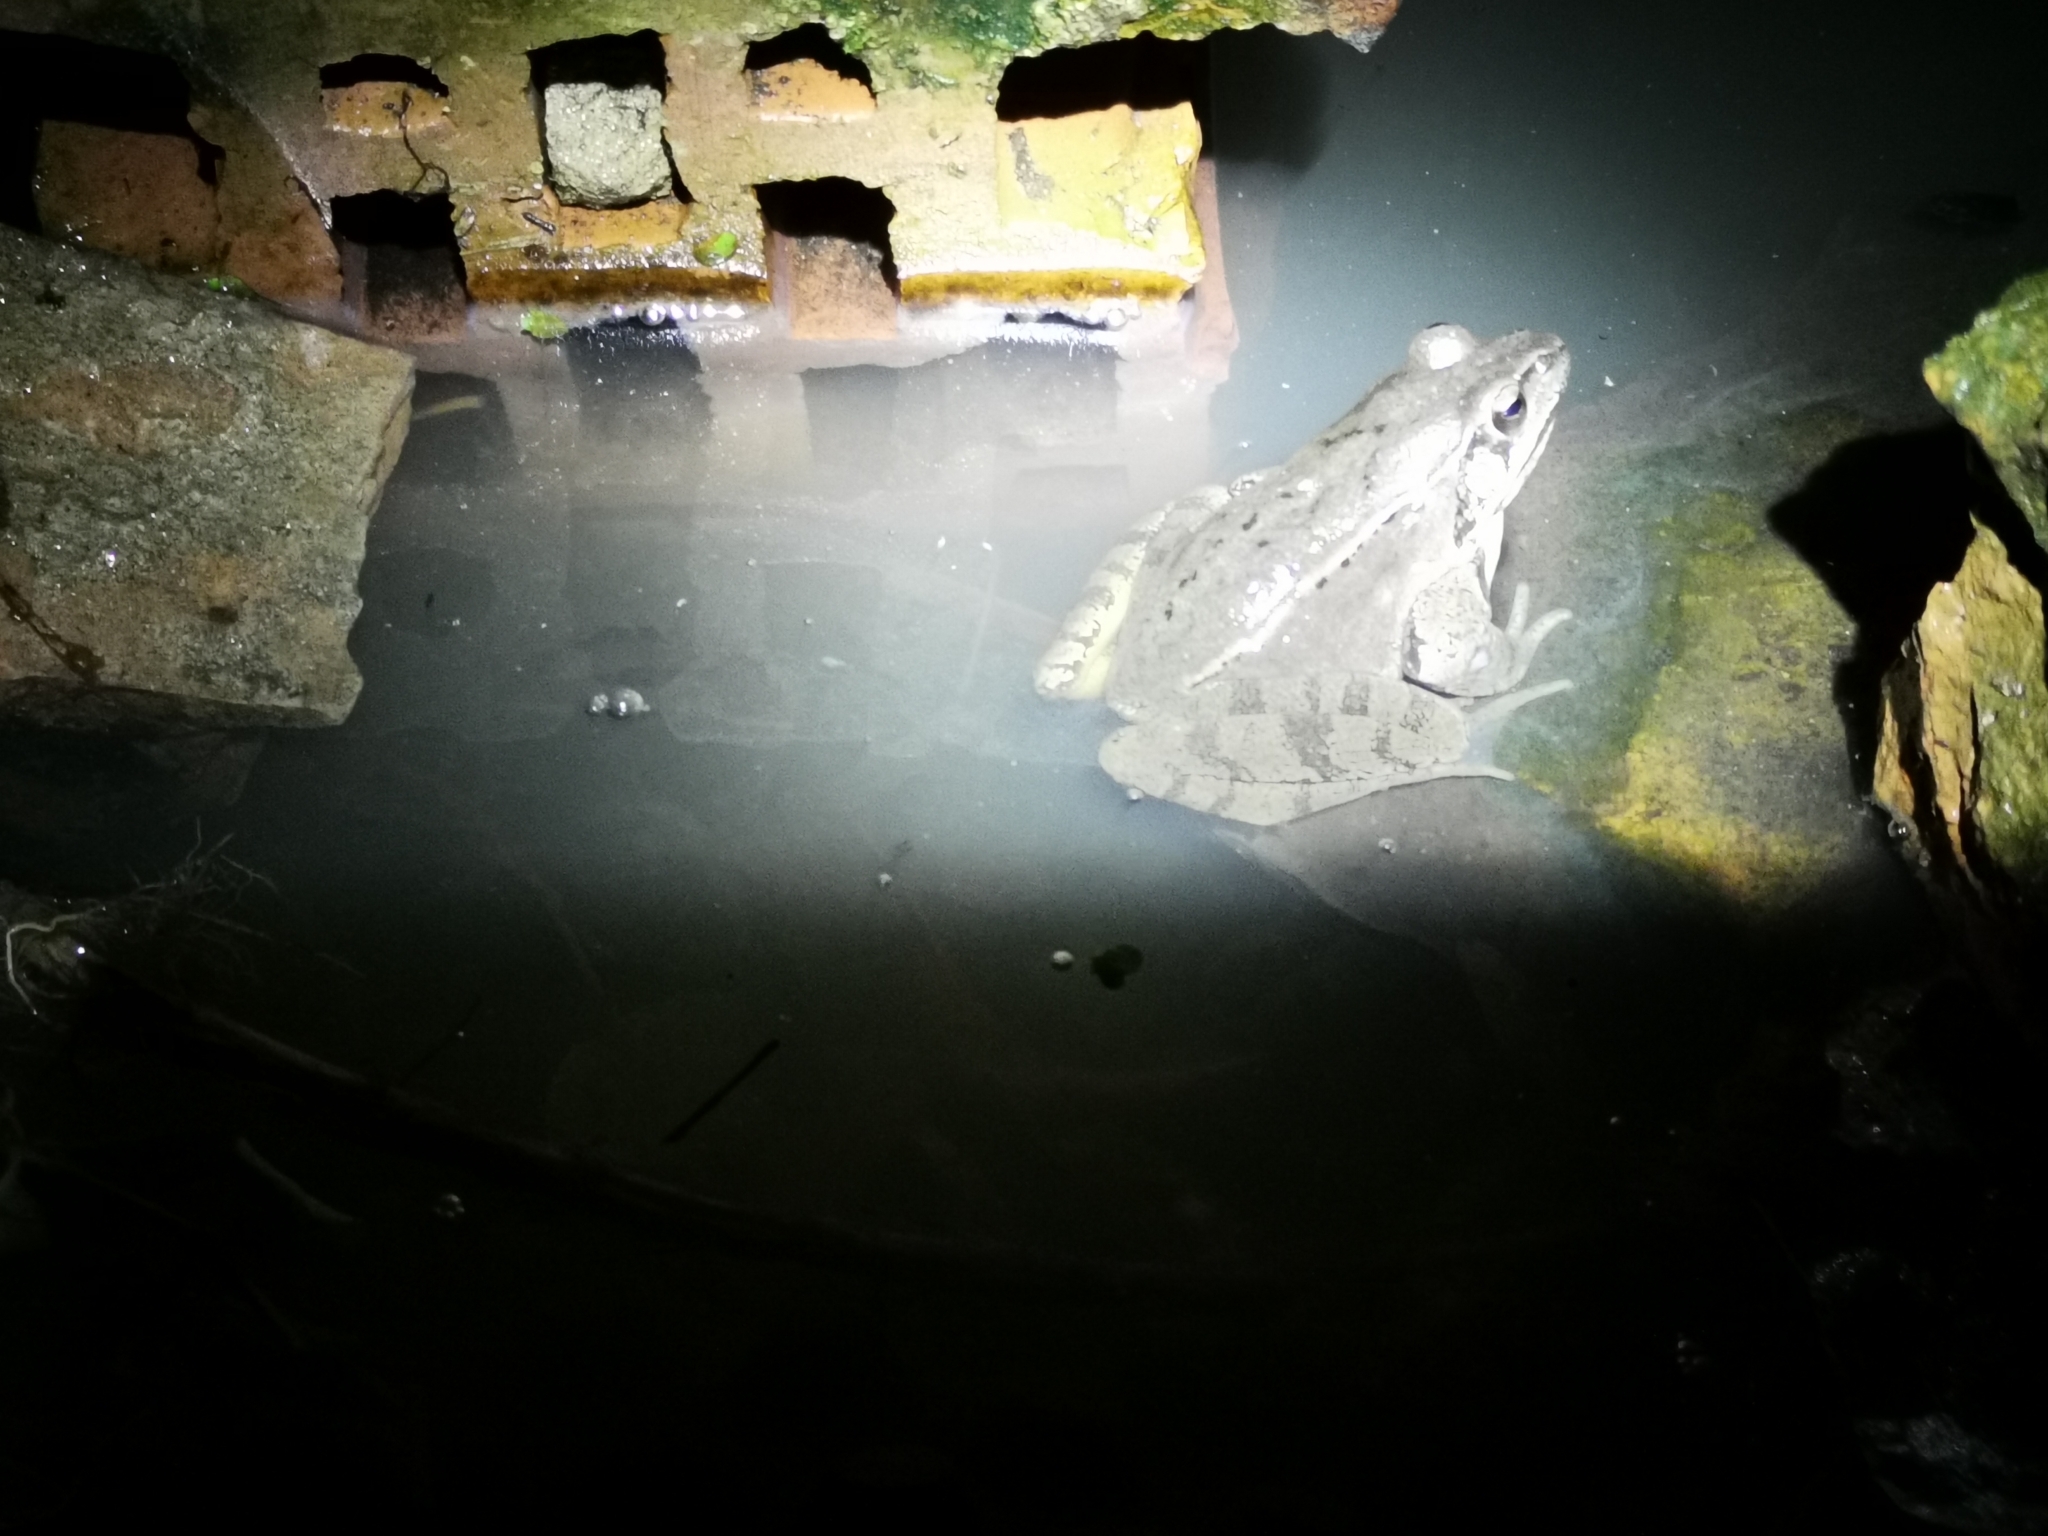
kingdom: Animalia
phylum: Chordata
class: Amphibia
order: Anura
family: Ranidae
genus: Rana
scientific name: Rana dalmatina
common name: Agile frog
